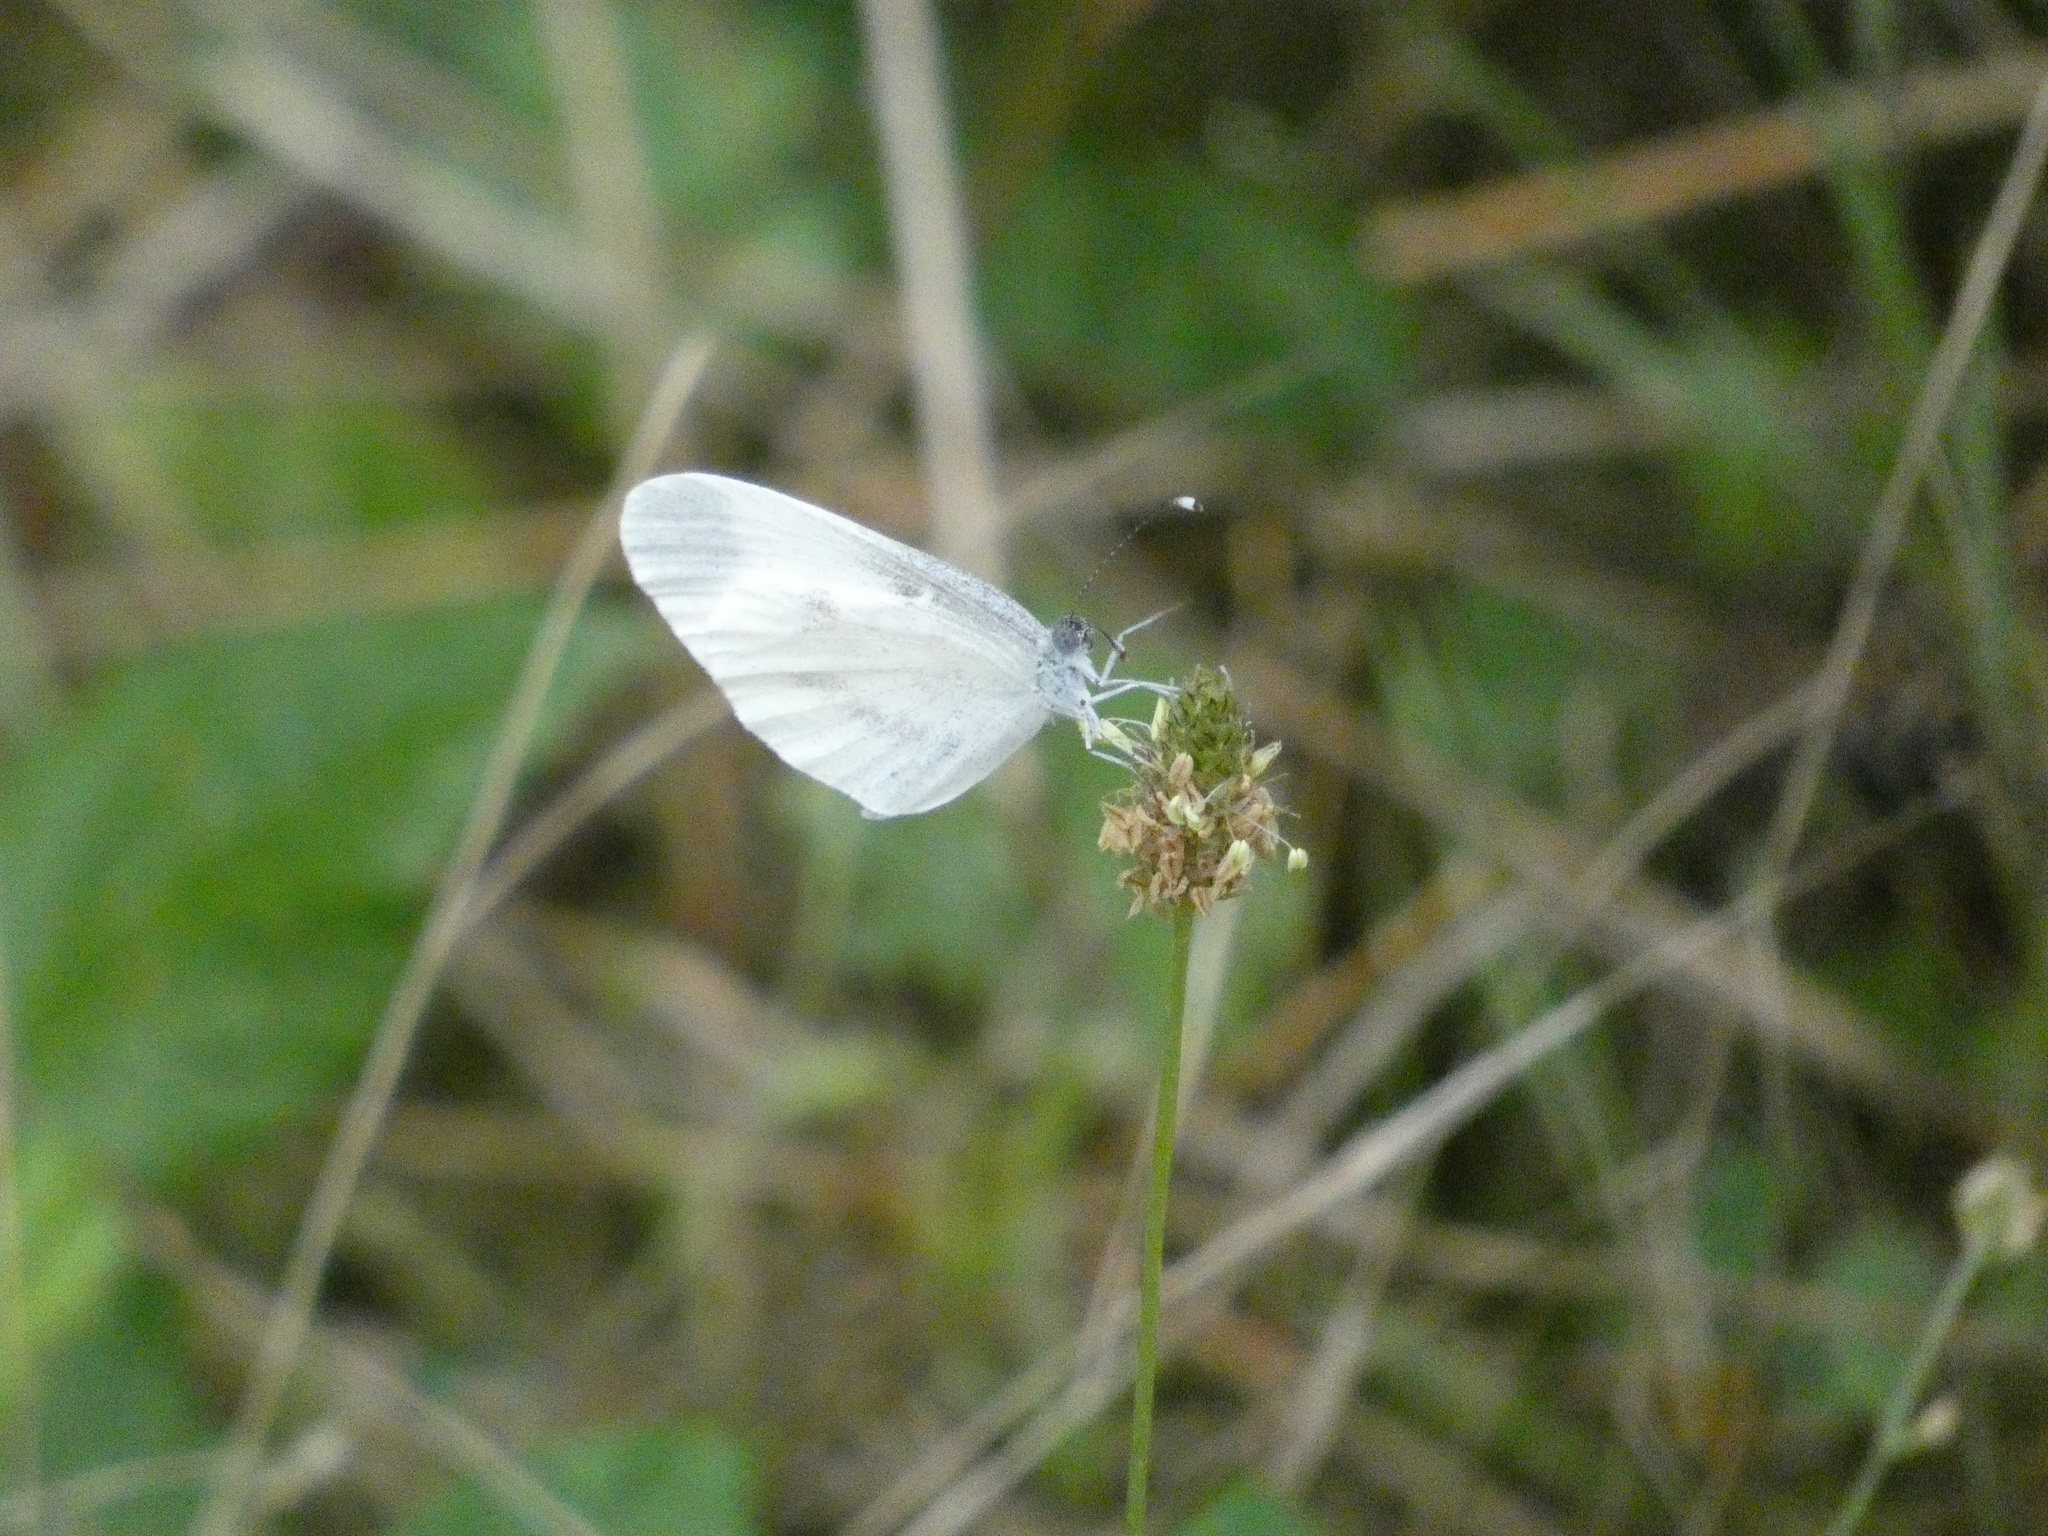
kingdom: Animalia
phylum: Arthropoda
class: Insecta
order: Lepidoptera
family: Pieridae
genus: Leptidea
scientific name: Leptidea sinapis
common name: Wood white
